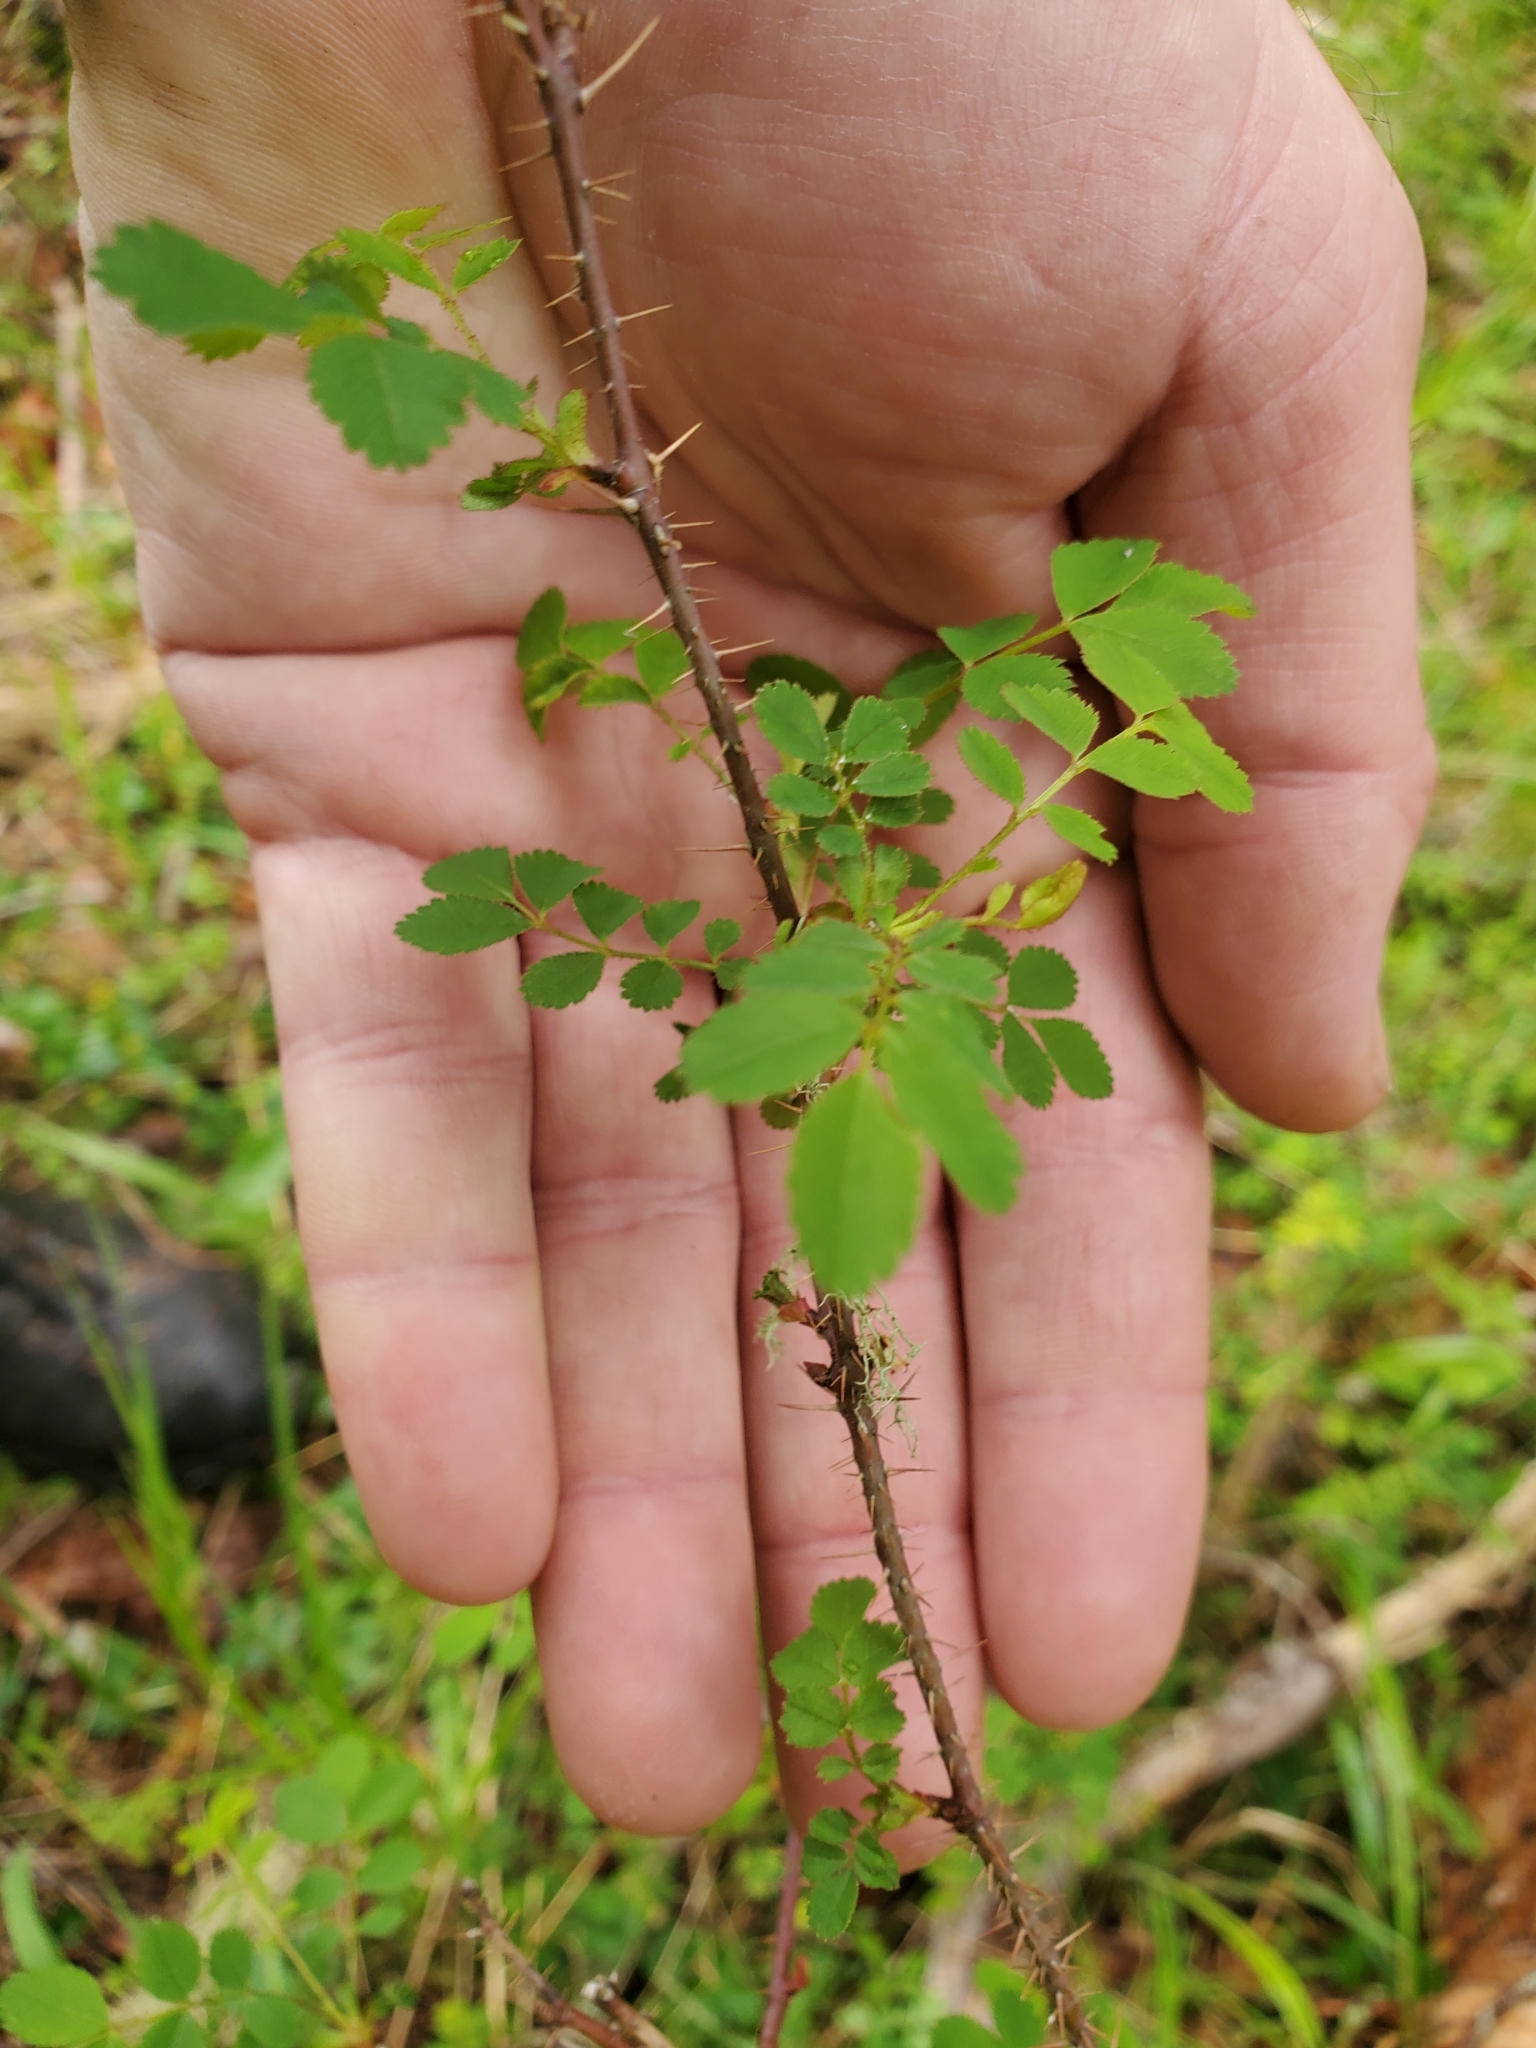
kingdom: Plantae
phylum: Tracheophyta
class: Magnoliopsida
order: Rosales
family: Rosaceae
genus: Rosa
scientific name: Rosa gymnocarpa
